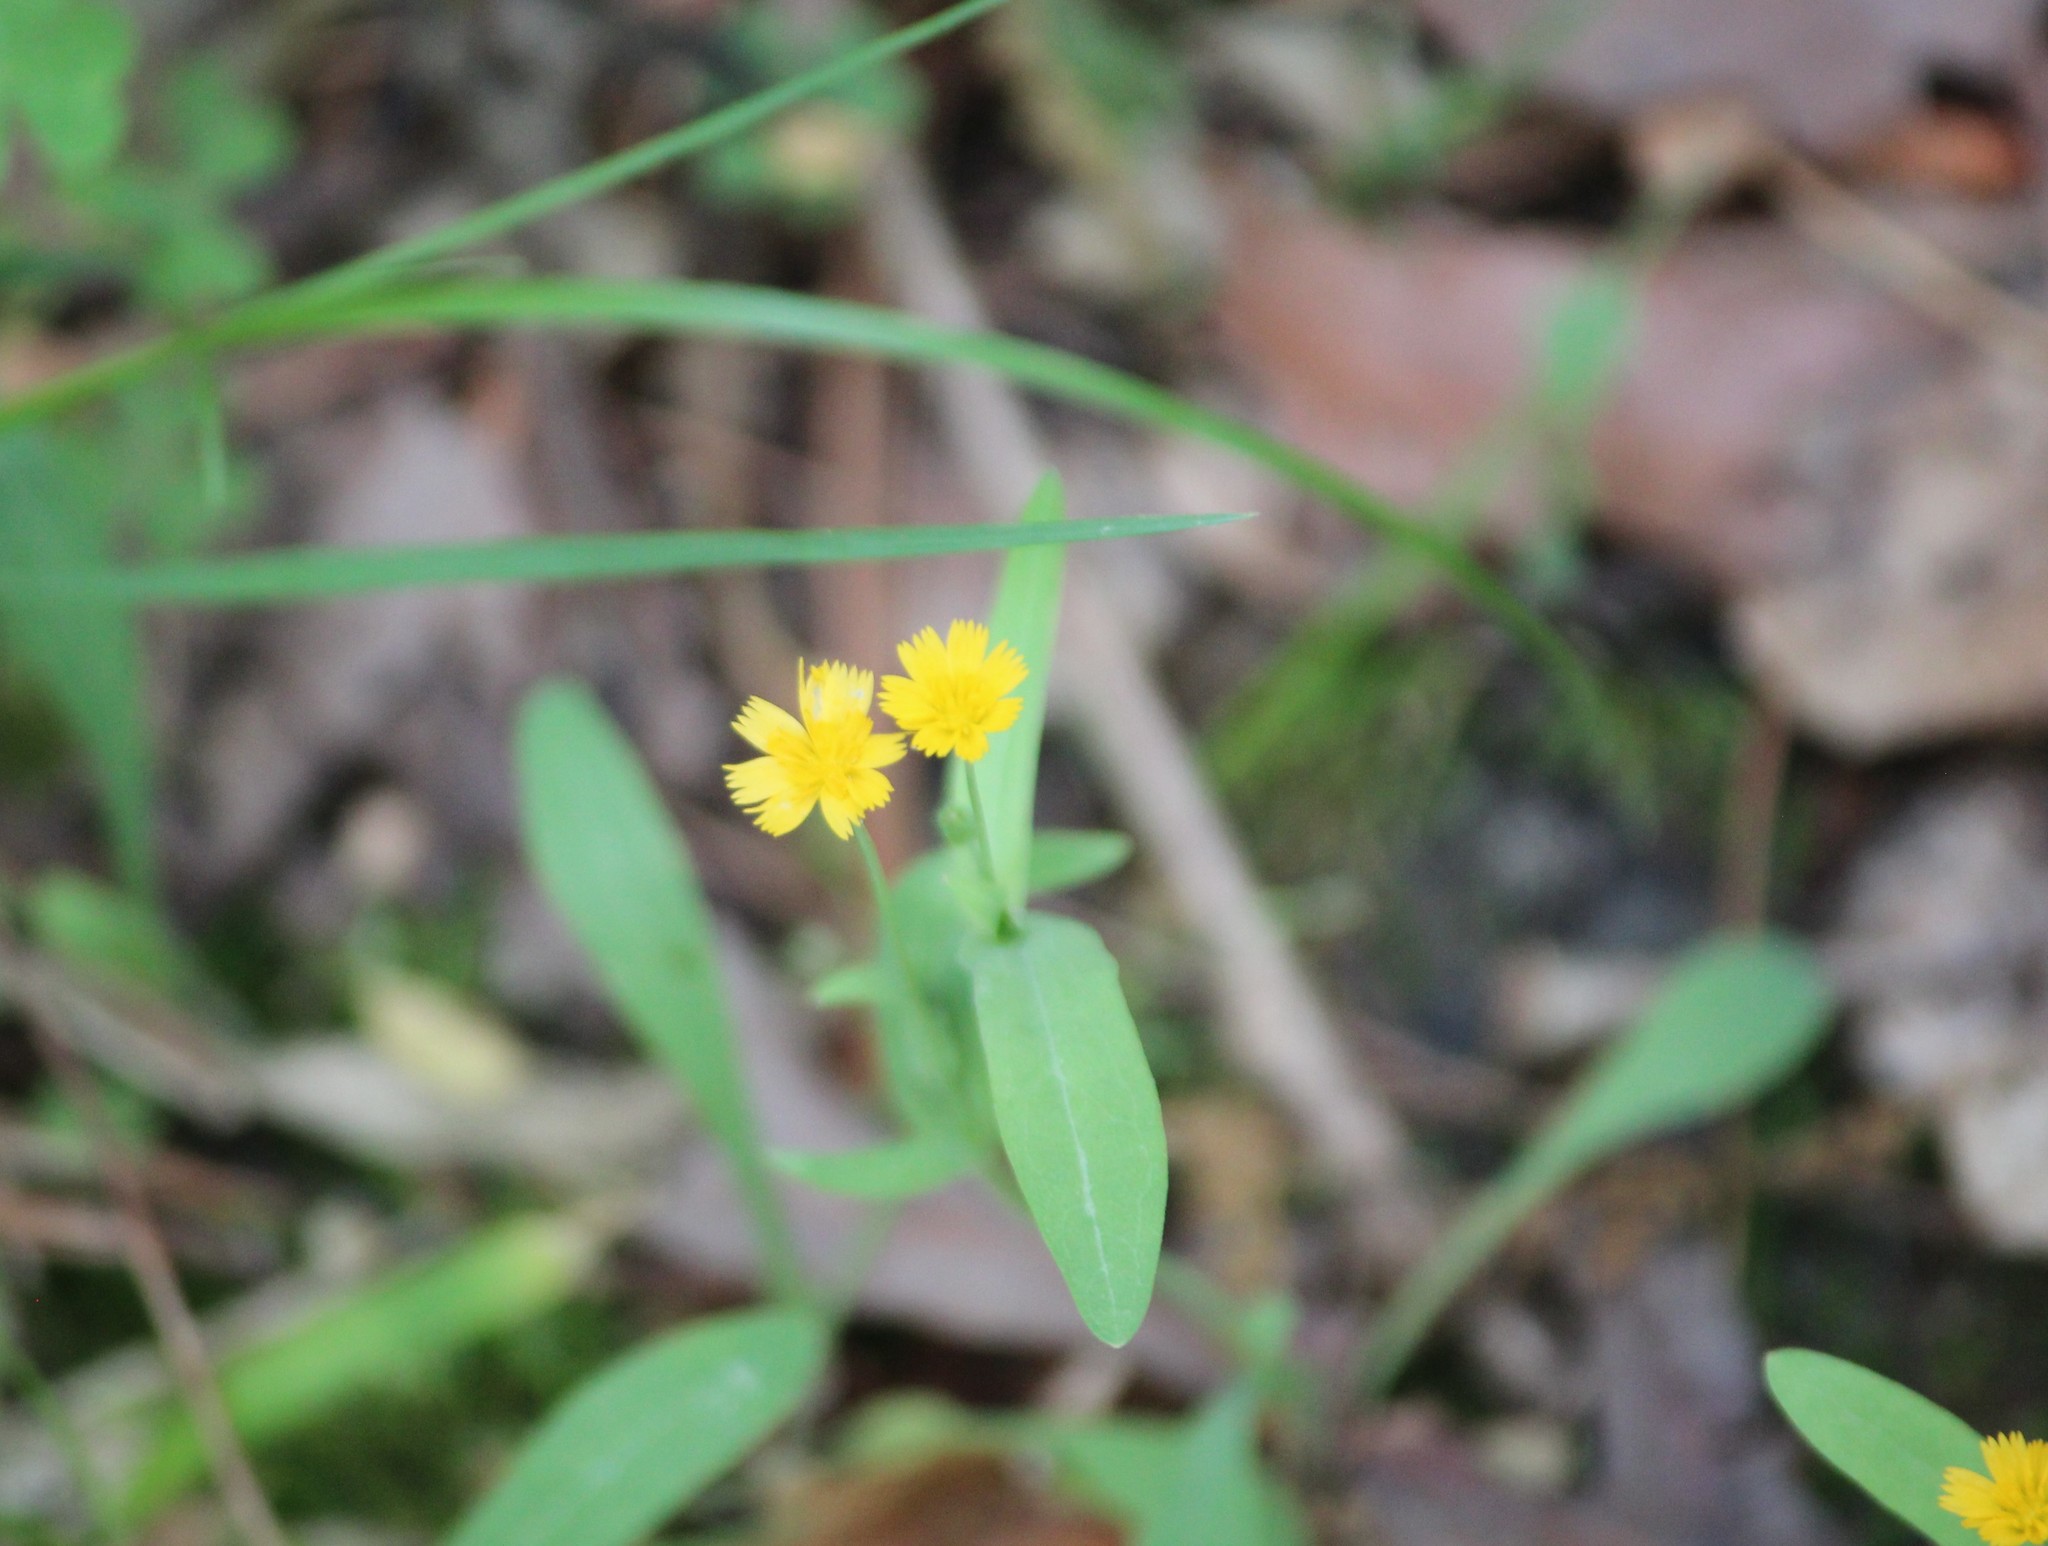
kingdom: Plantae
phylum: Tracheophyta
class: Magnoliopsida
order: Asterales
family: Asteraceae
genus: Krigia
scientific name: Krigia cespitosa
